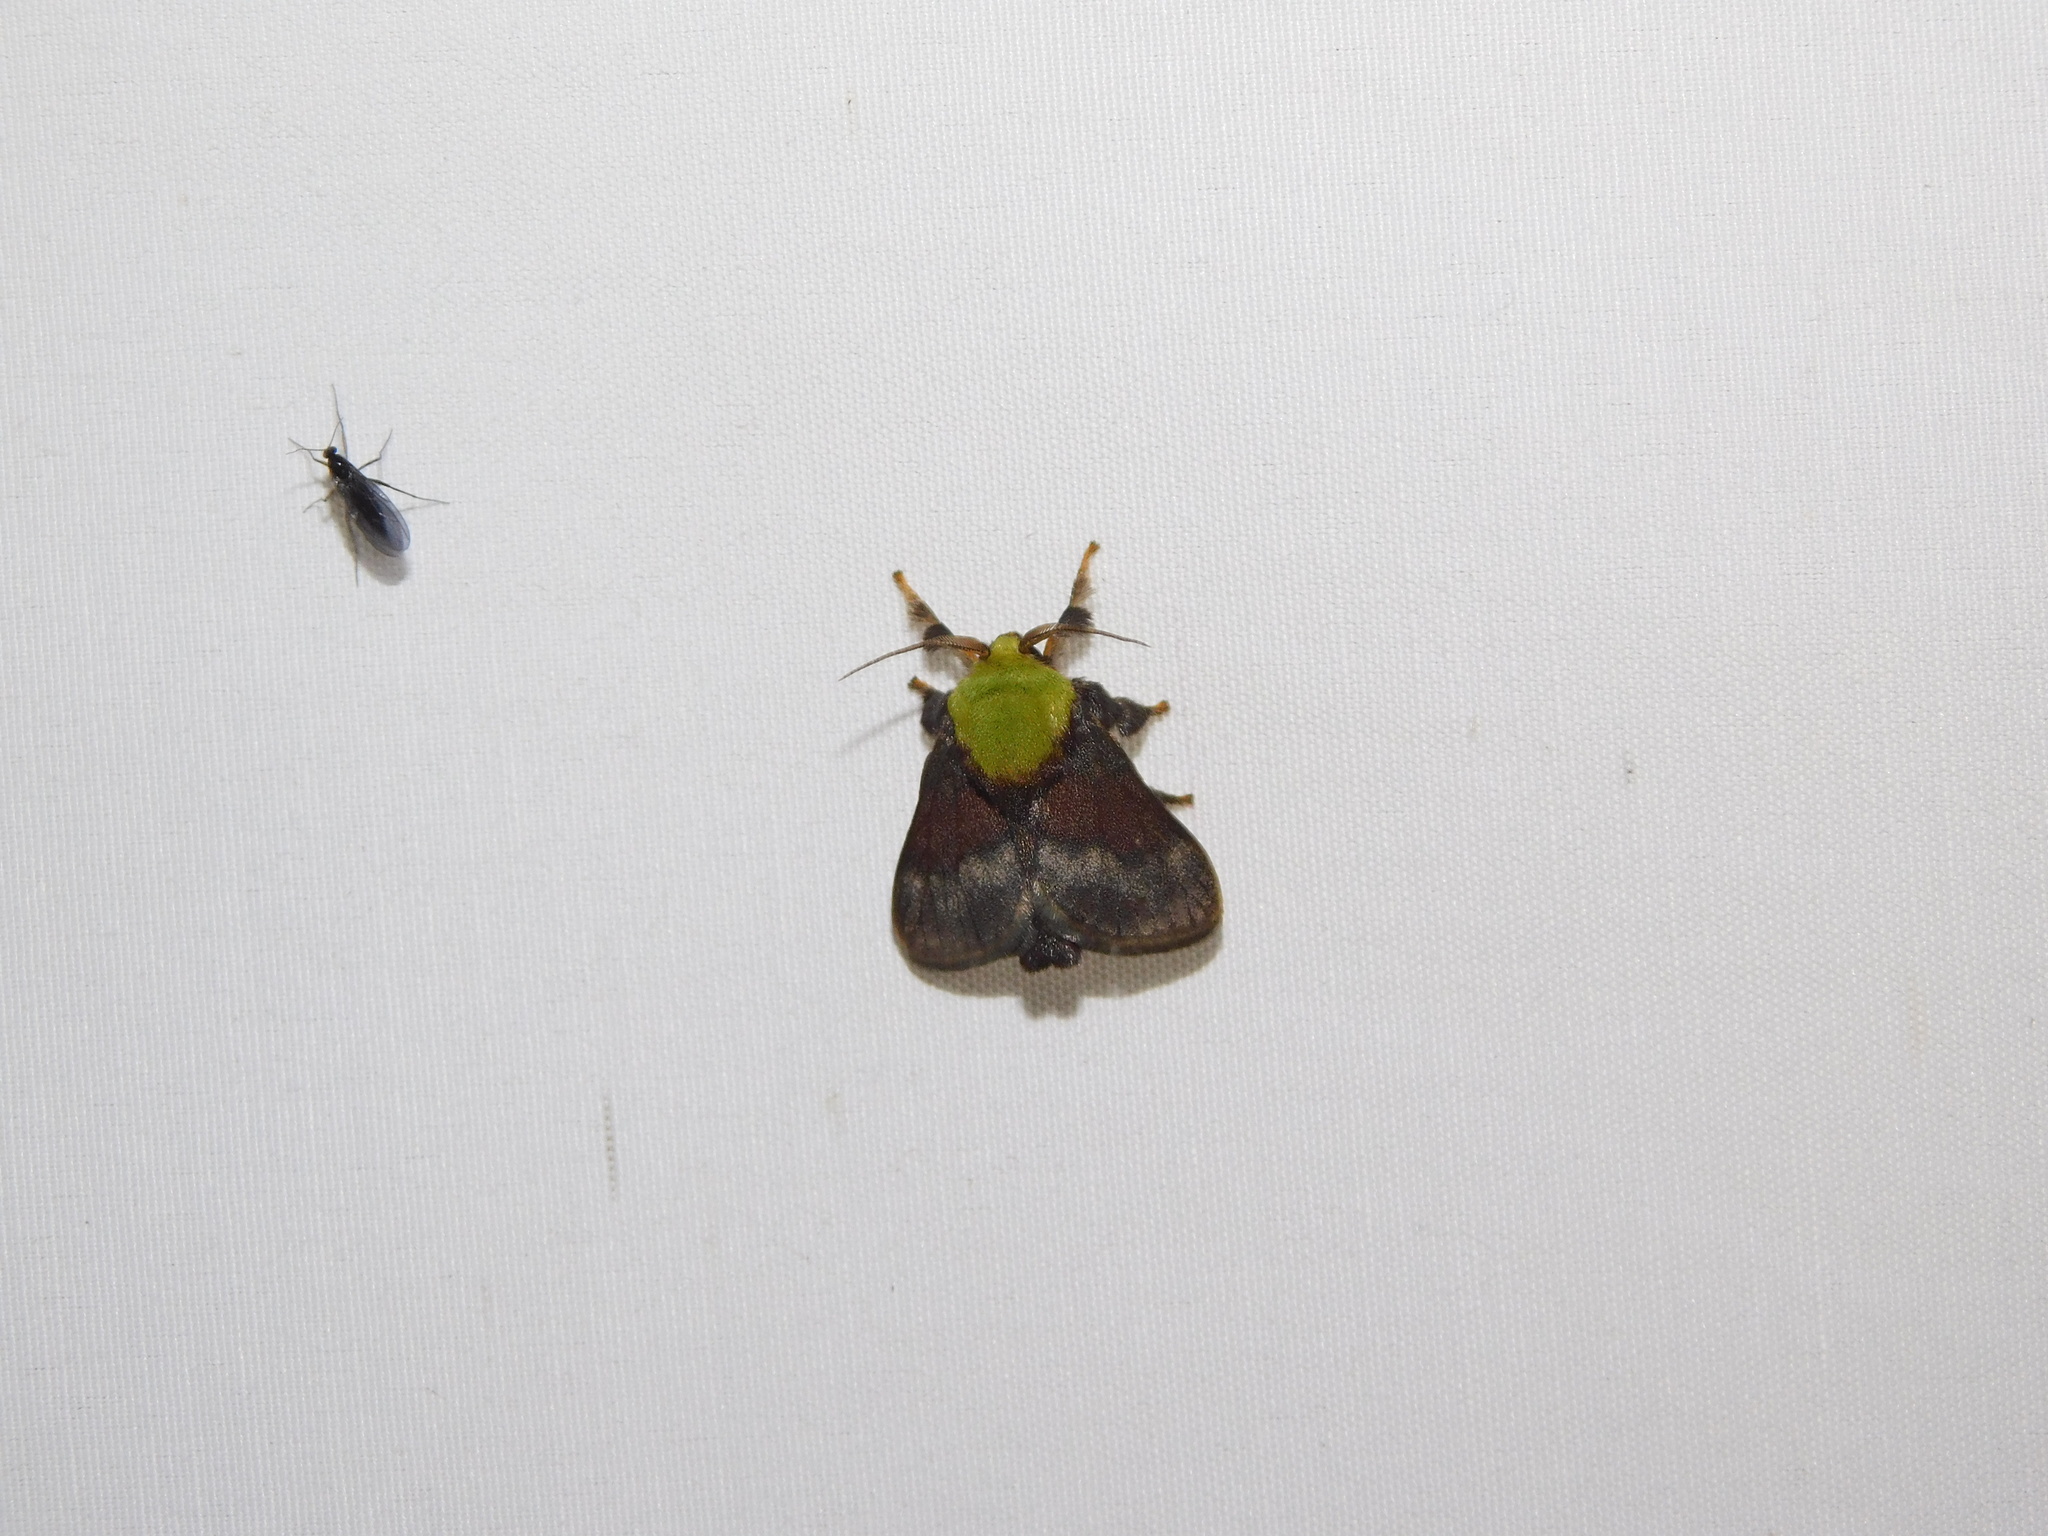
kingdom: Animalia
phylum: Arthropoda
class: Insecta
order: Lepidoptera
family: Limacodidae
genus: Aergina
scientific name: Aergina fumosa
